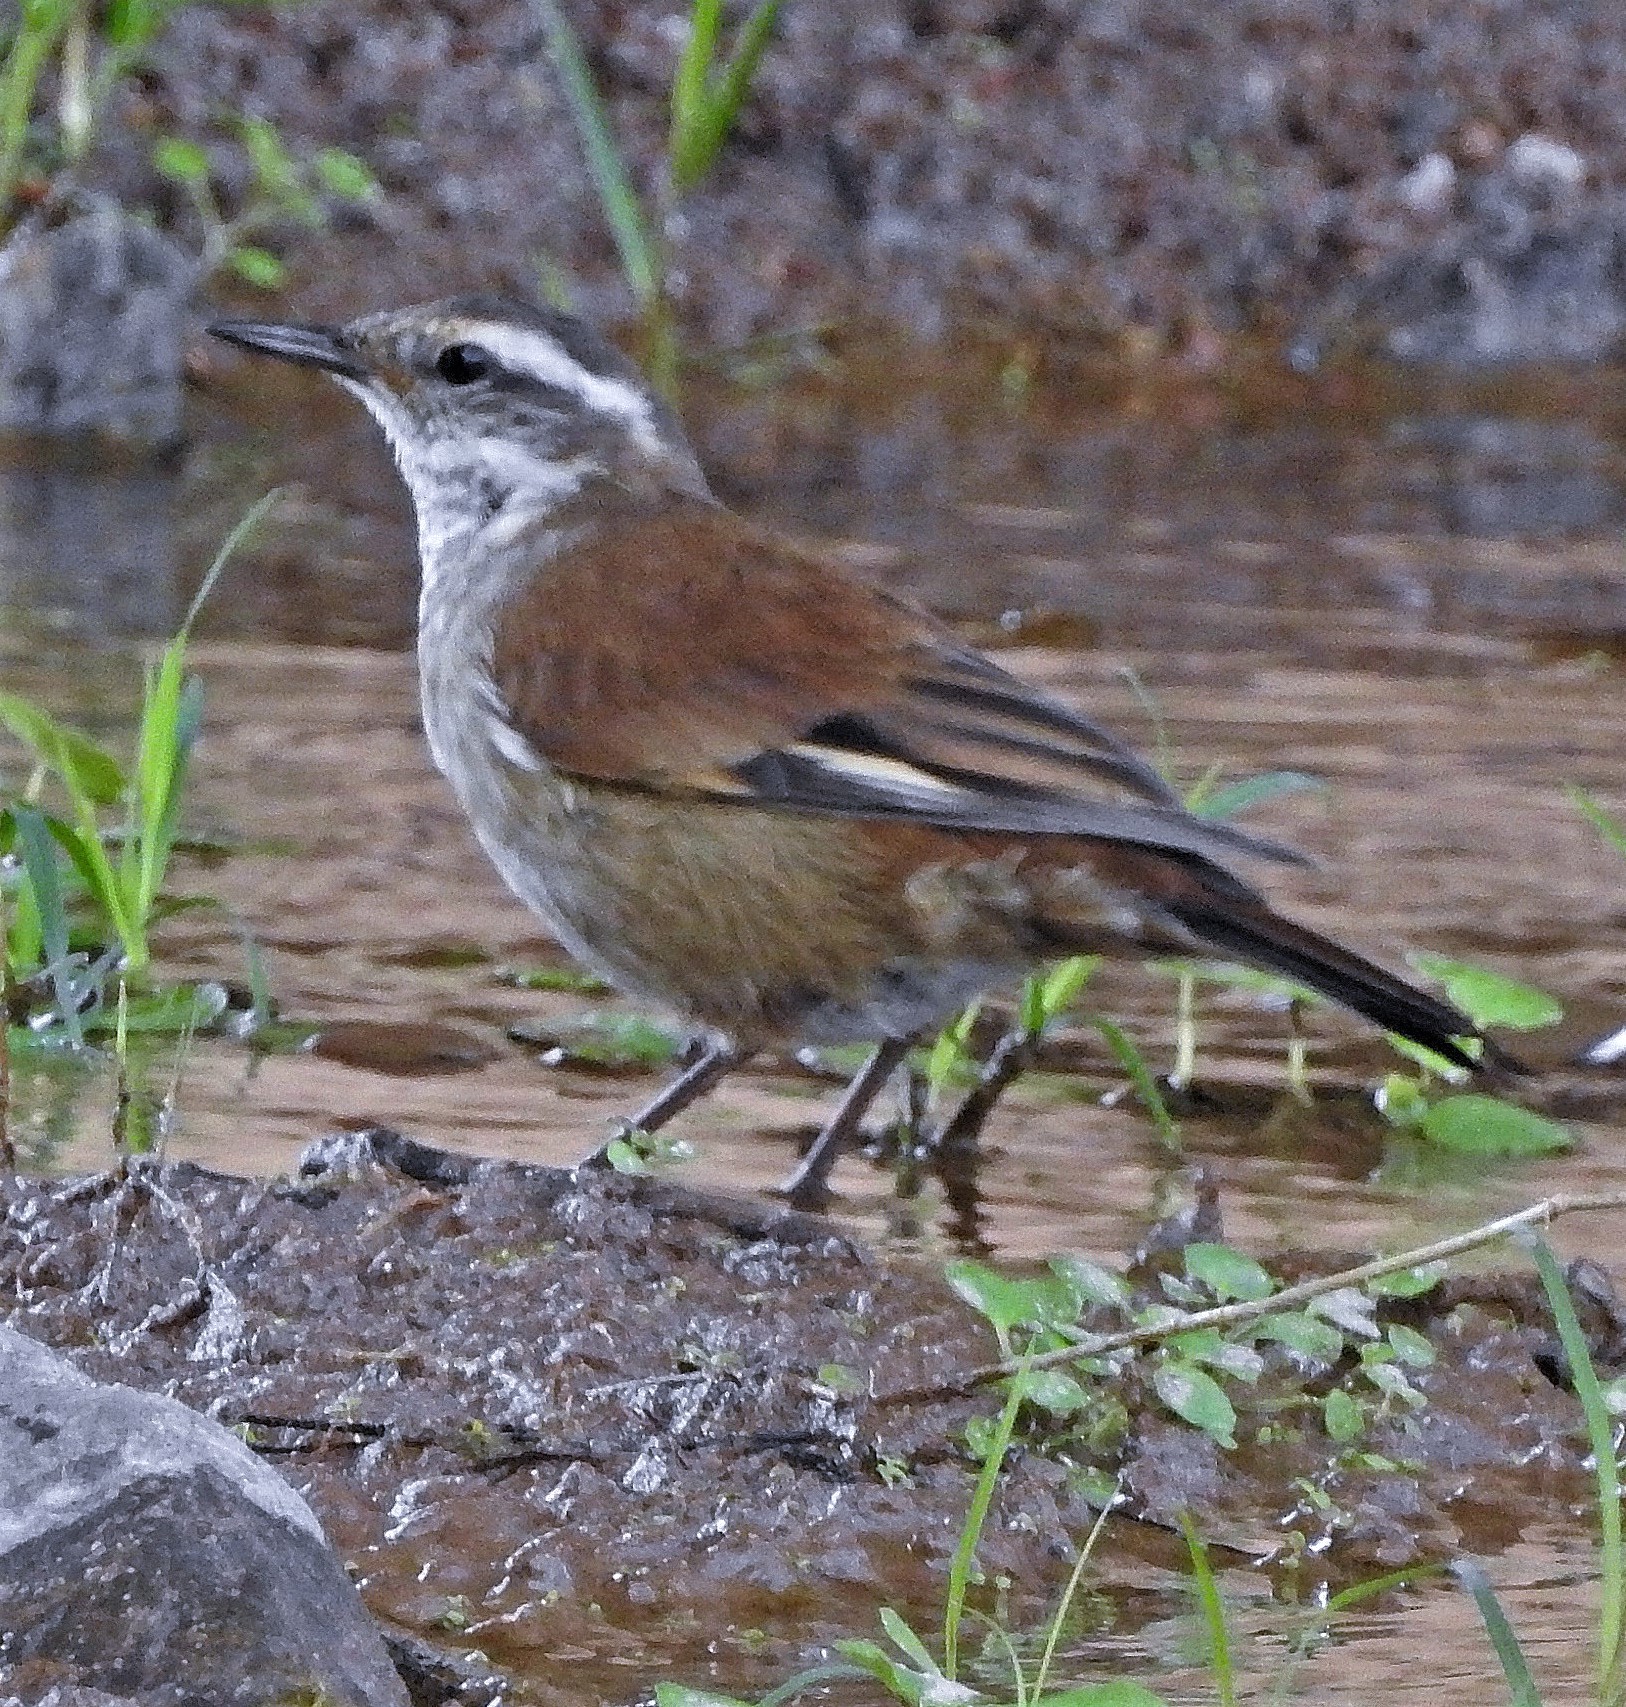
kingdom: Animalia
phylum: Chordata
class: Aves
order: Passeriformes
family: Furnariidae
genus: Cinclodes
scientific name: Cinclodes fuscus
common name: Buff-winged cinclodes
